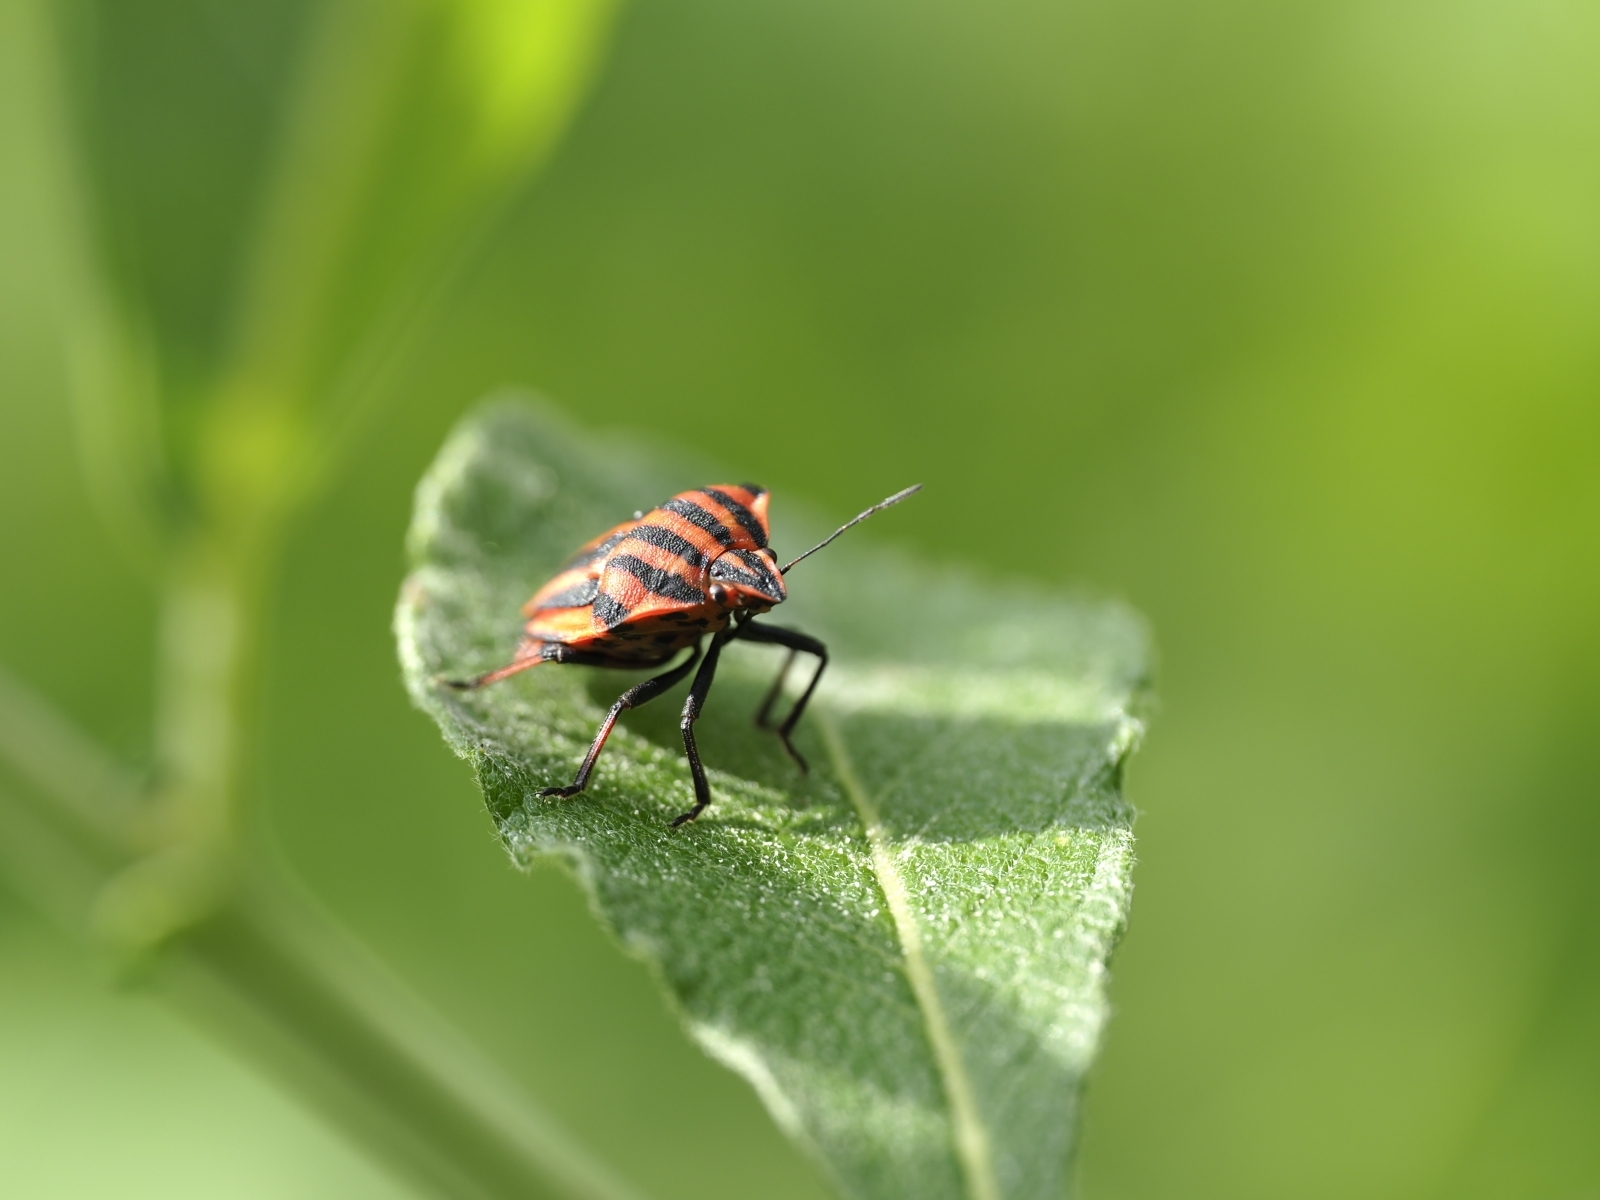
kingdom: Animalia
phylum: Arthropoda
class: Insecta
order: Hemiptera
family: Pentatomidae
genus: Graphosoma
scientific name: Graphosoma italicum
